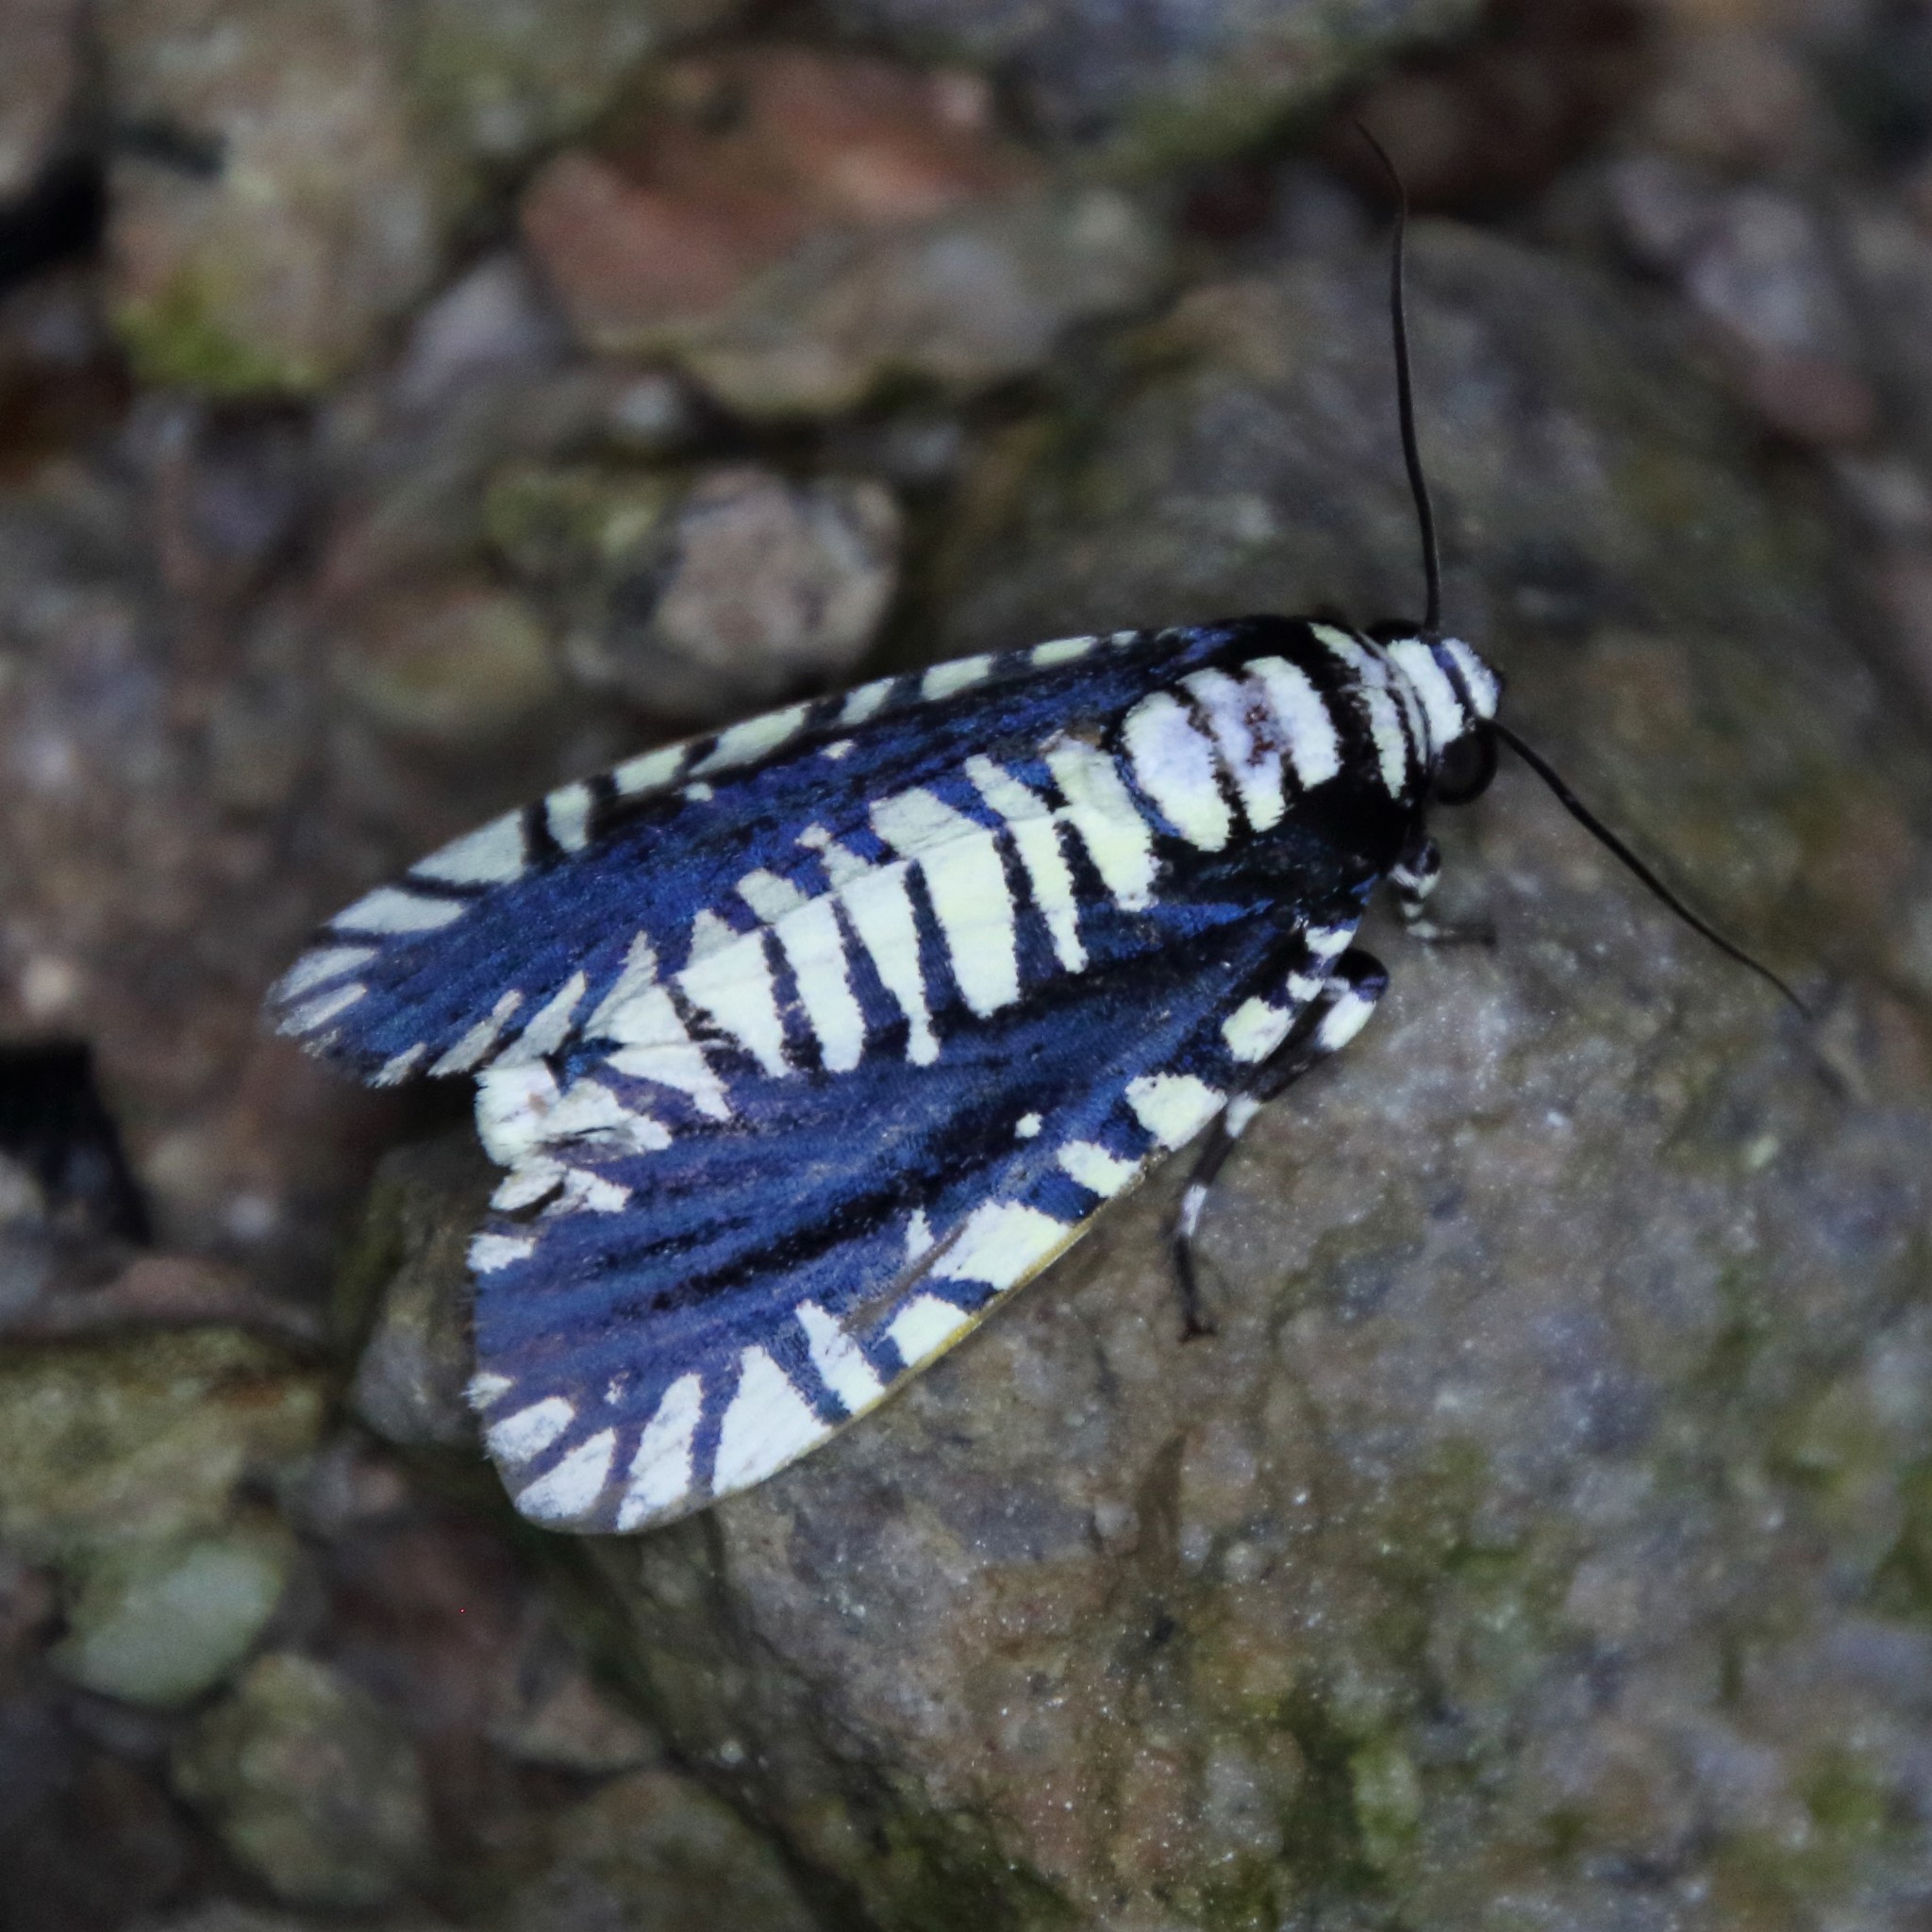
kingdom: Animalia
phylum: Arthropoda
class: Insecta
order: Lepidoptera
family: Noctuidae
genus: Apsarasa
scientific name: Apsarasa radians
